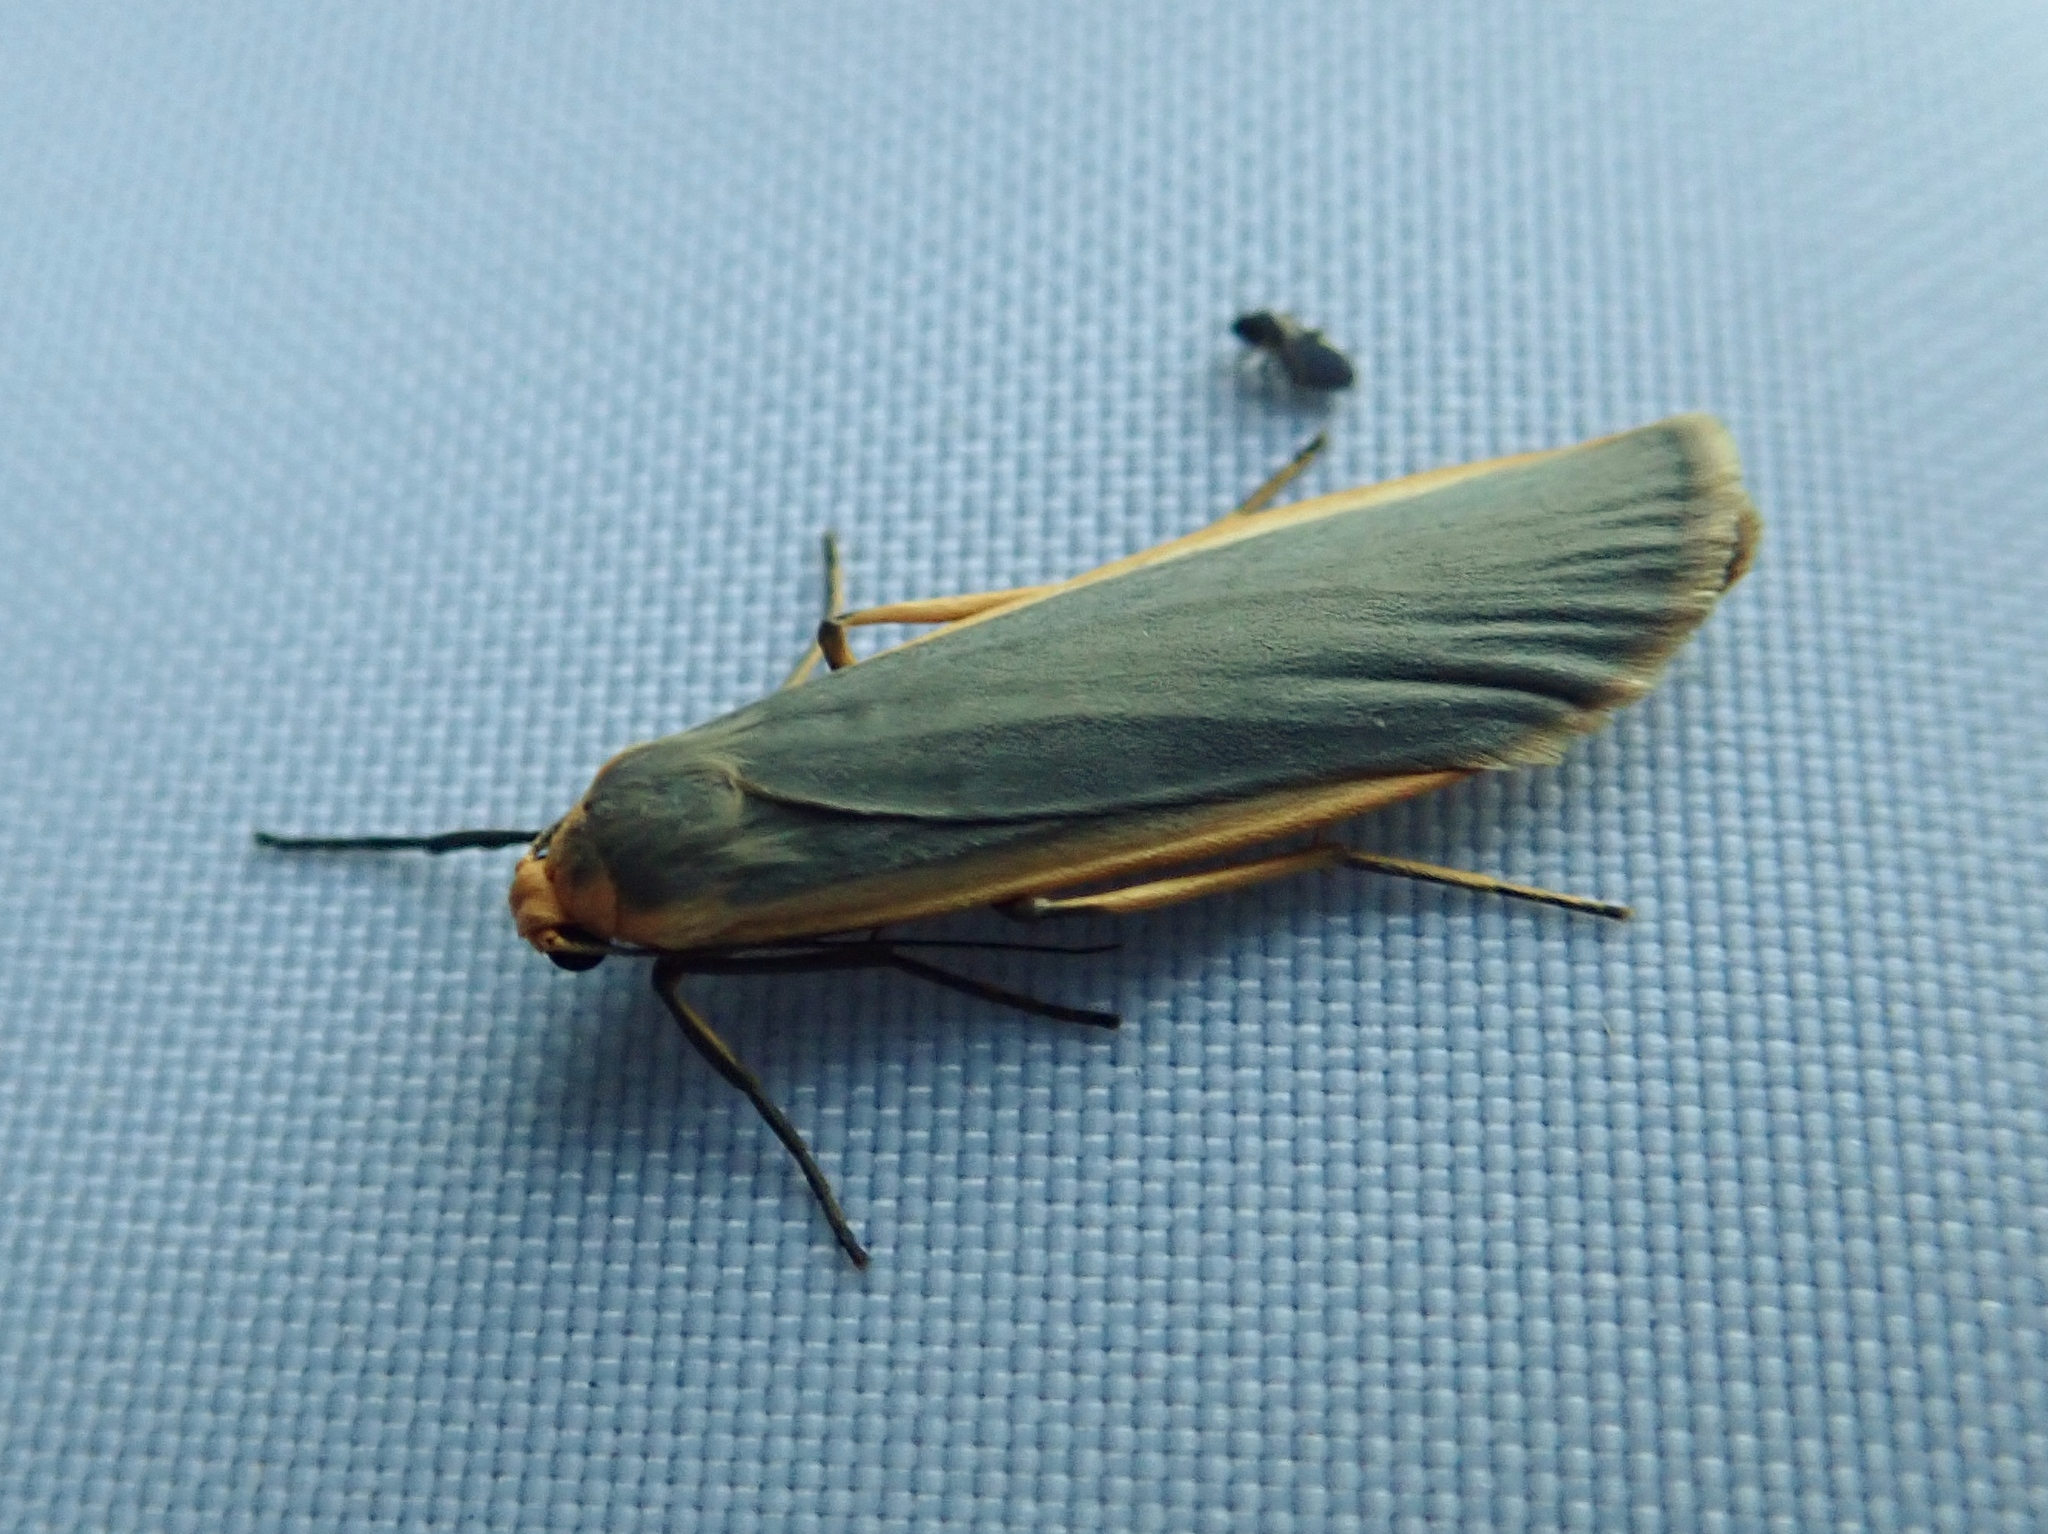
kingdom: Animalia
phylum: Arthropoda
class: Insecta
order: Lepidoptera
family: Erebidae
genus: Nyea
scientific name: Nyea lurideola
